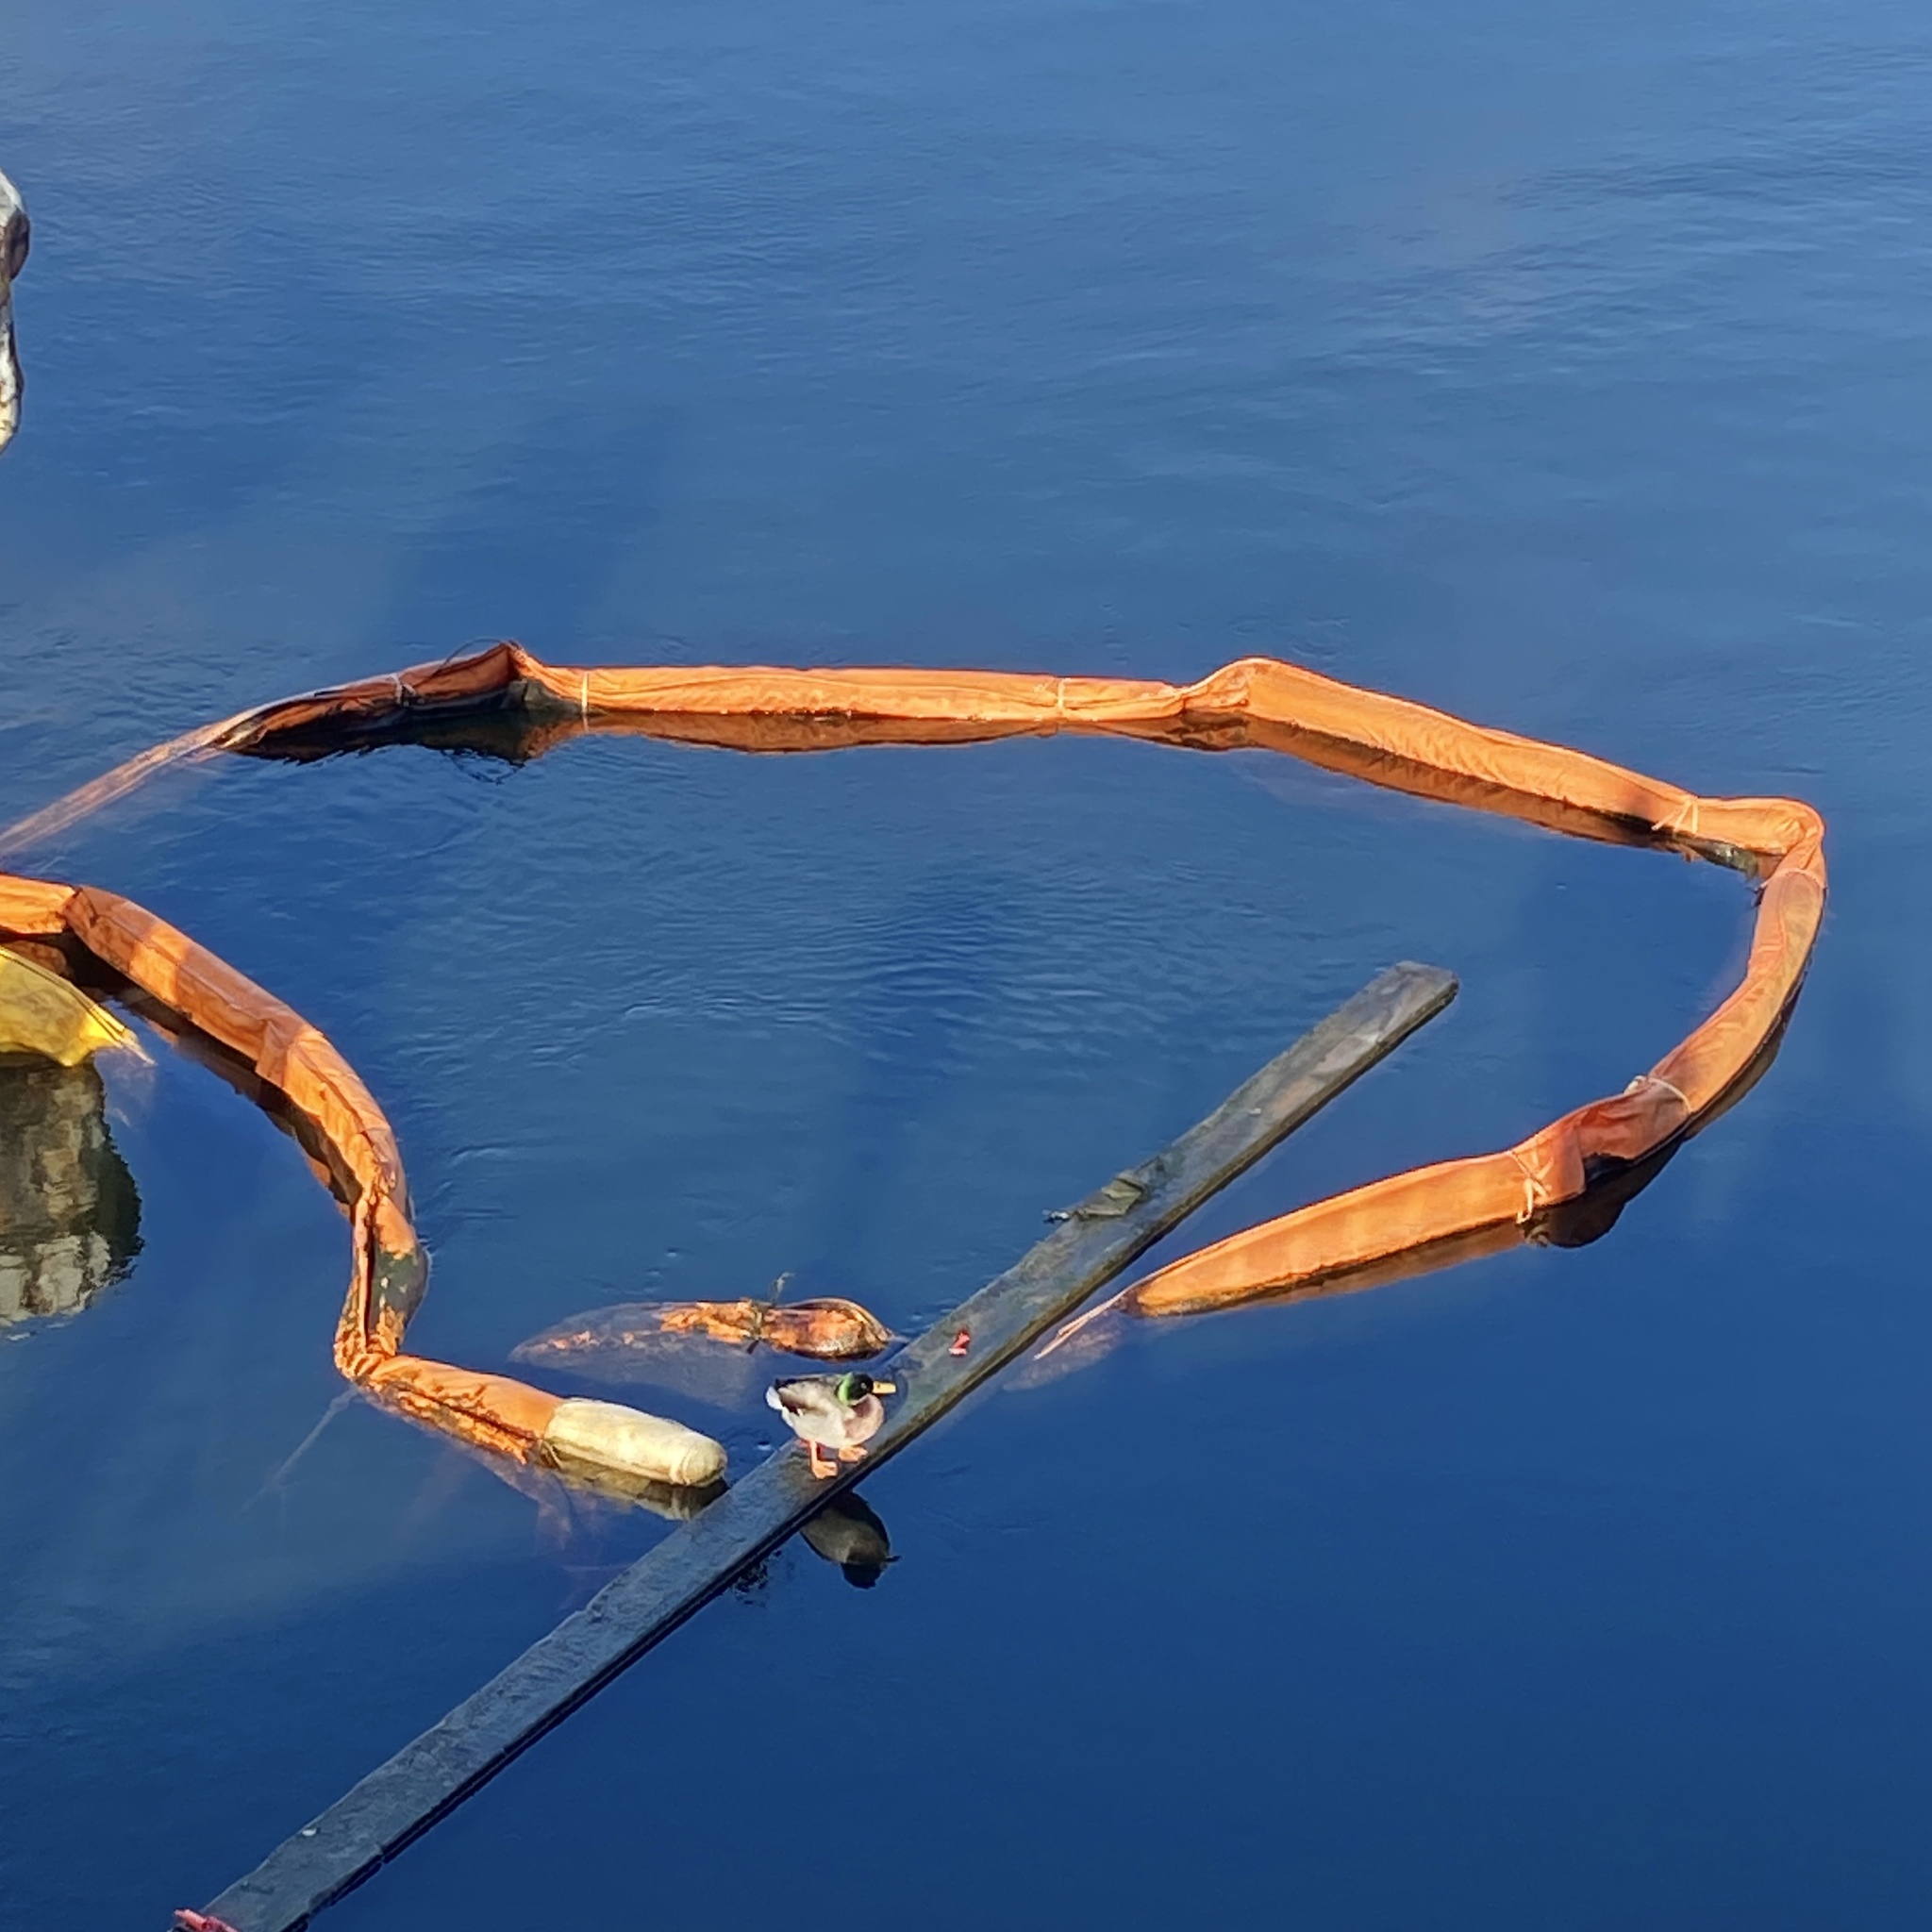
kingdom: Animalia
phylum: Chordata
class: Aves
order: Anseriformes
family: Anatidae
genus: Anas
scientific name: Anas platyrhynchos
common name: Mallard
